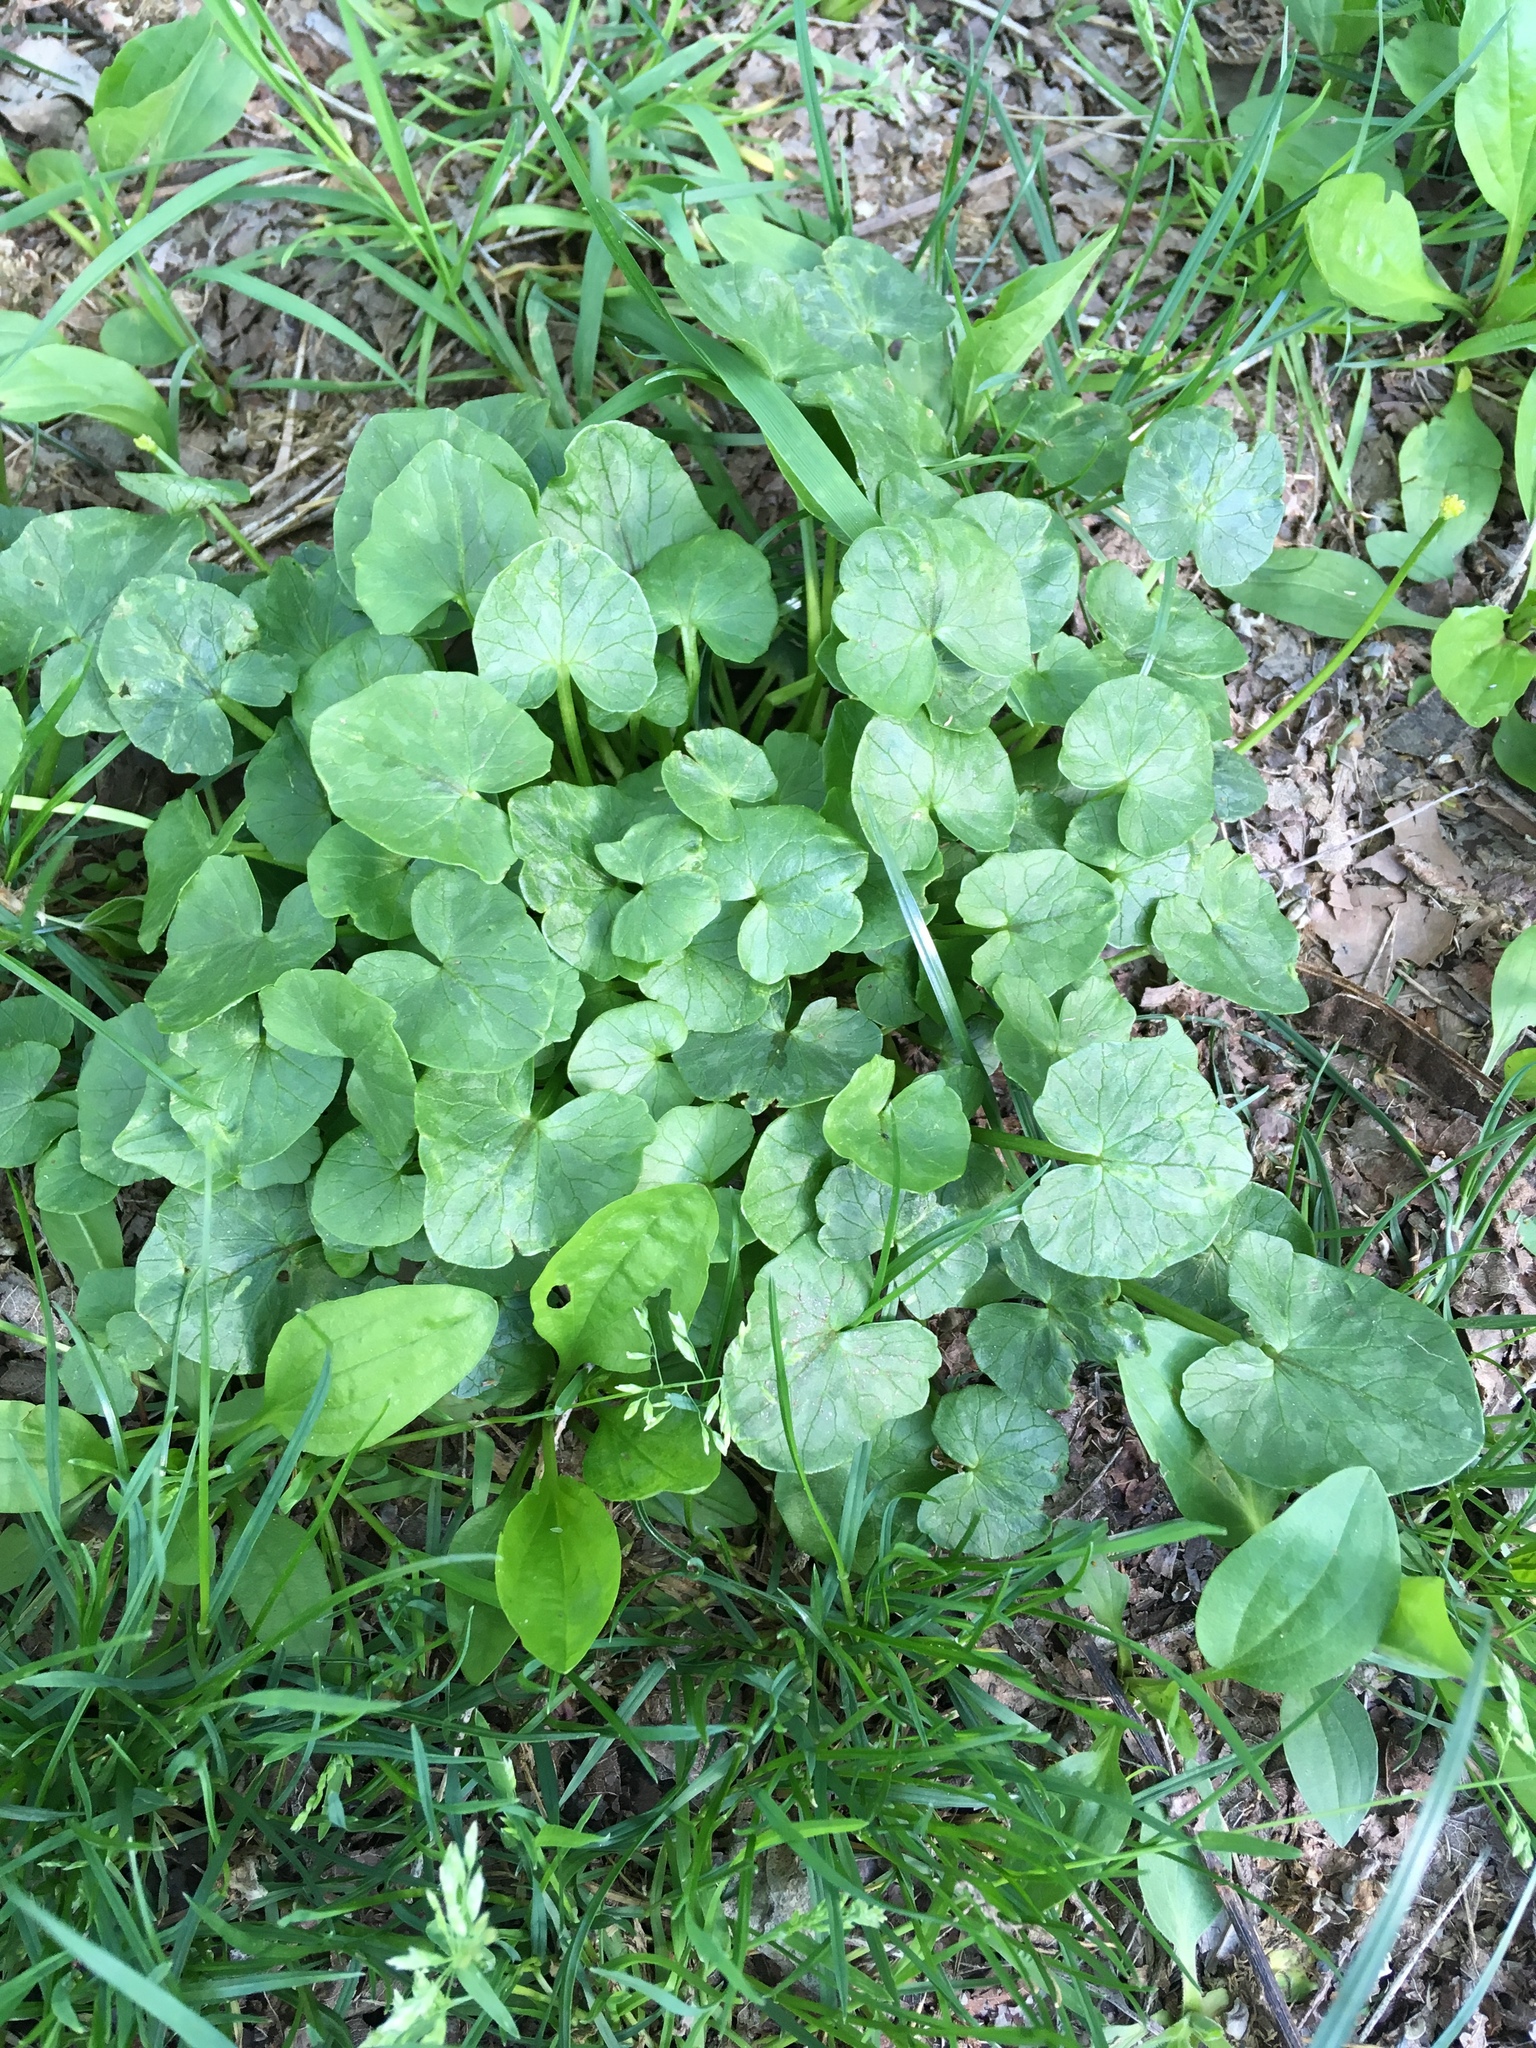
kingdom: Plantae
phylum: Tracheophyta
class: Magnoliopsida
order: Ranunculales
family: Ranunculaceae
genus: Ficaria
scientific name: Ficaria verna
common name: Lesser celandine
